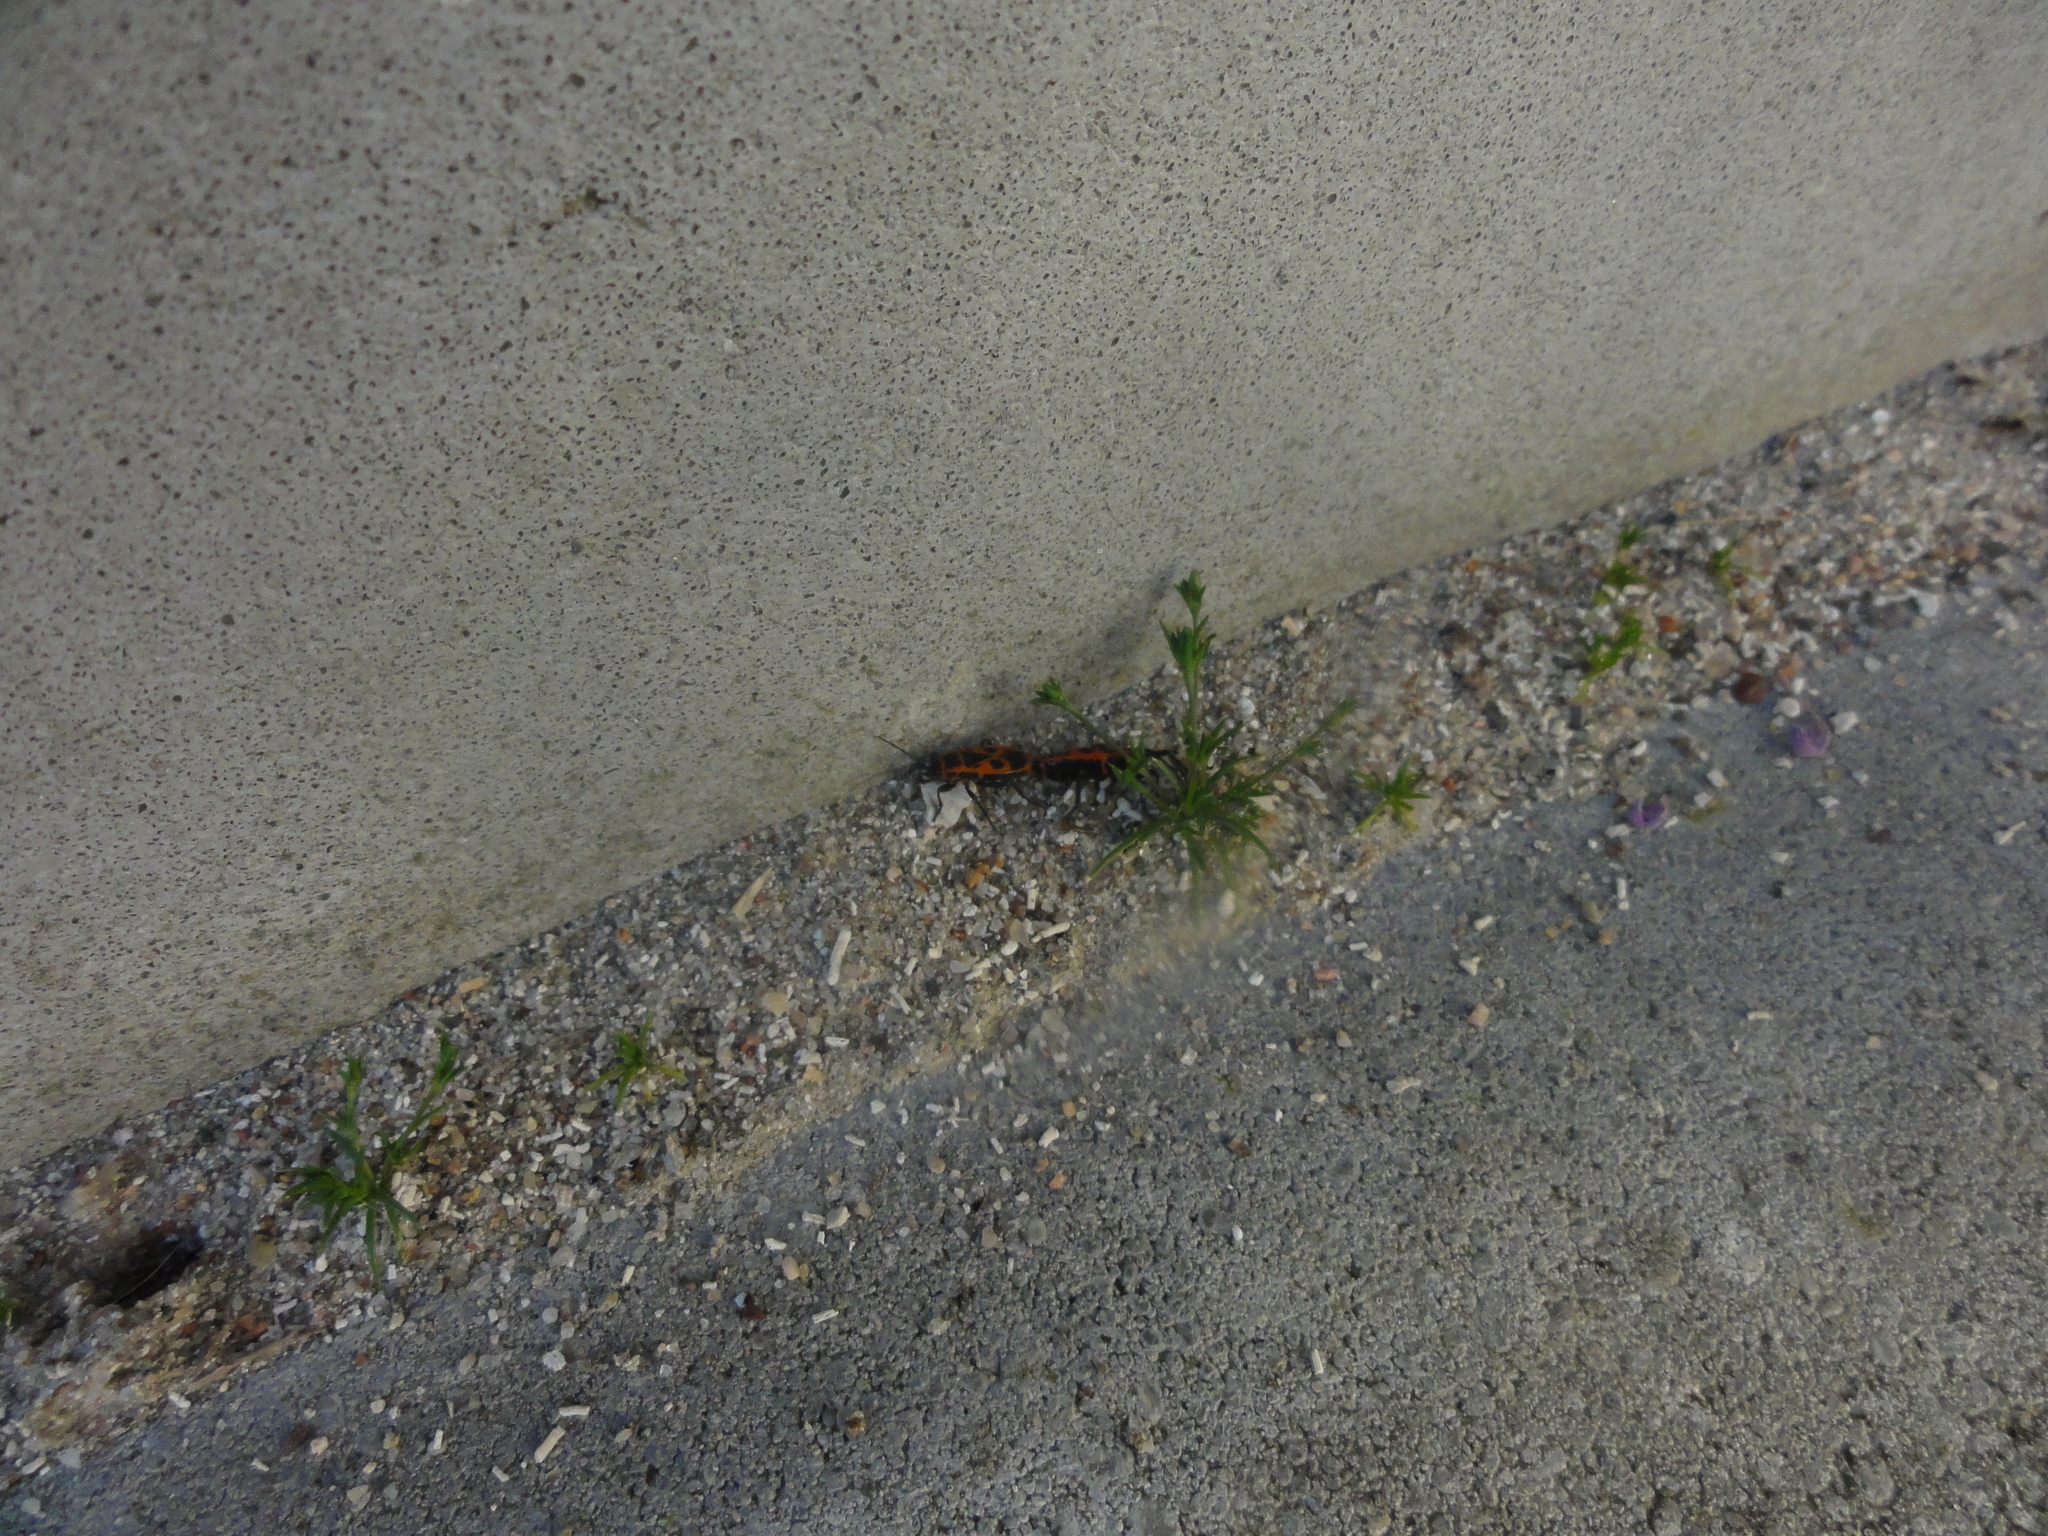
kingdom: Animalia
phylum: Arthropoda
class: Insecta
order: Hemiptera
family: Pyrrhocoridae
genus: Pyrrhocoris
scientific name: Pyrrhocoris apterus
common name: Firebug
